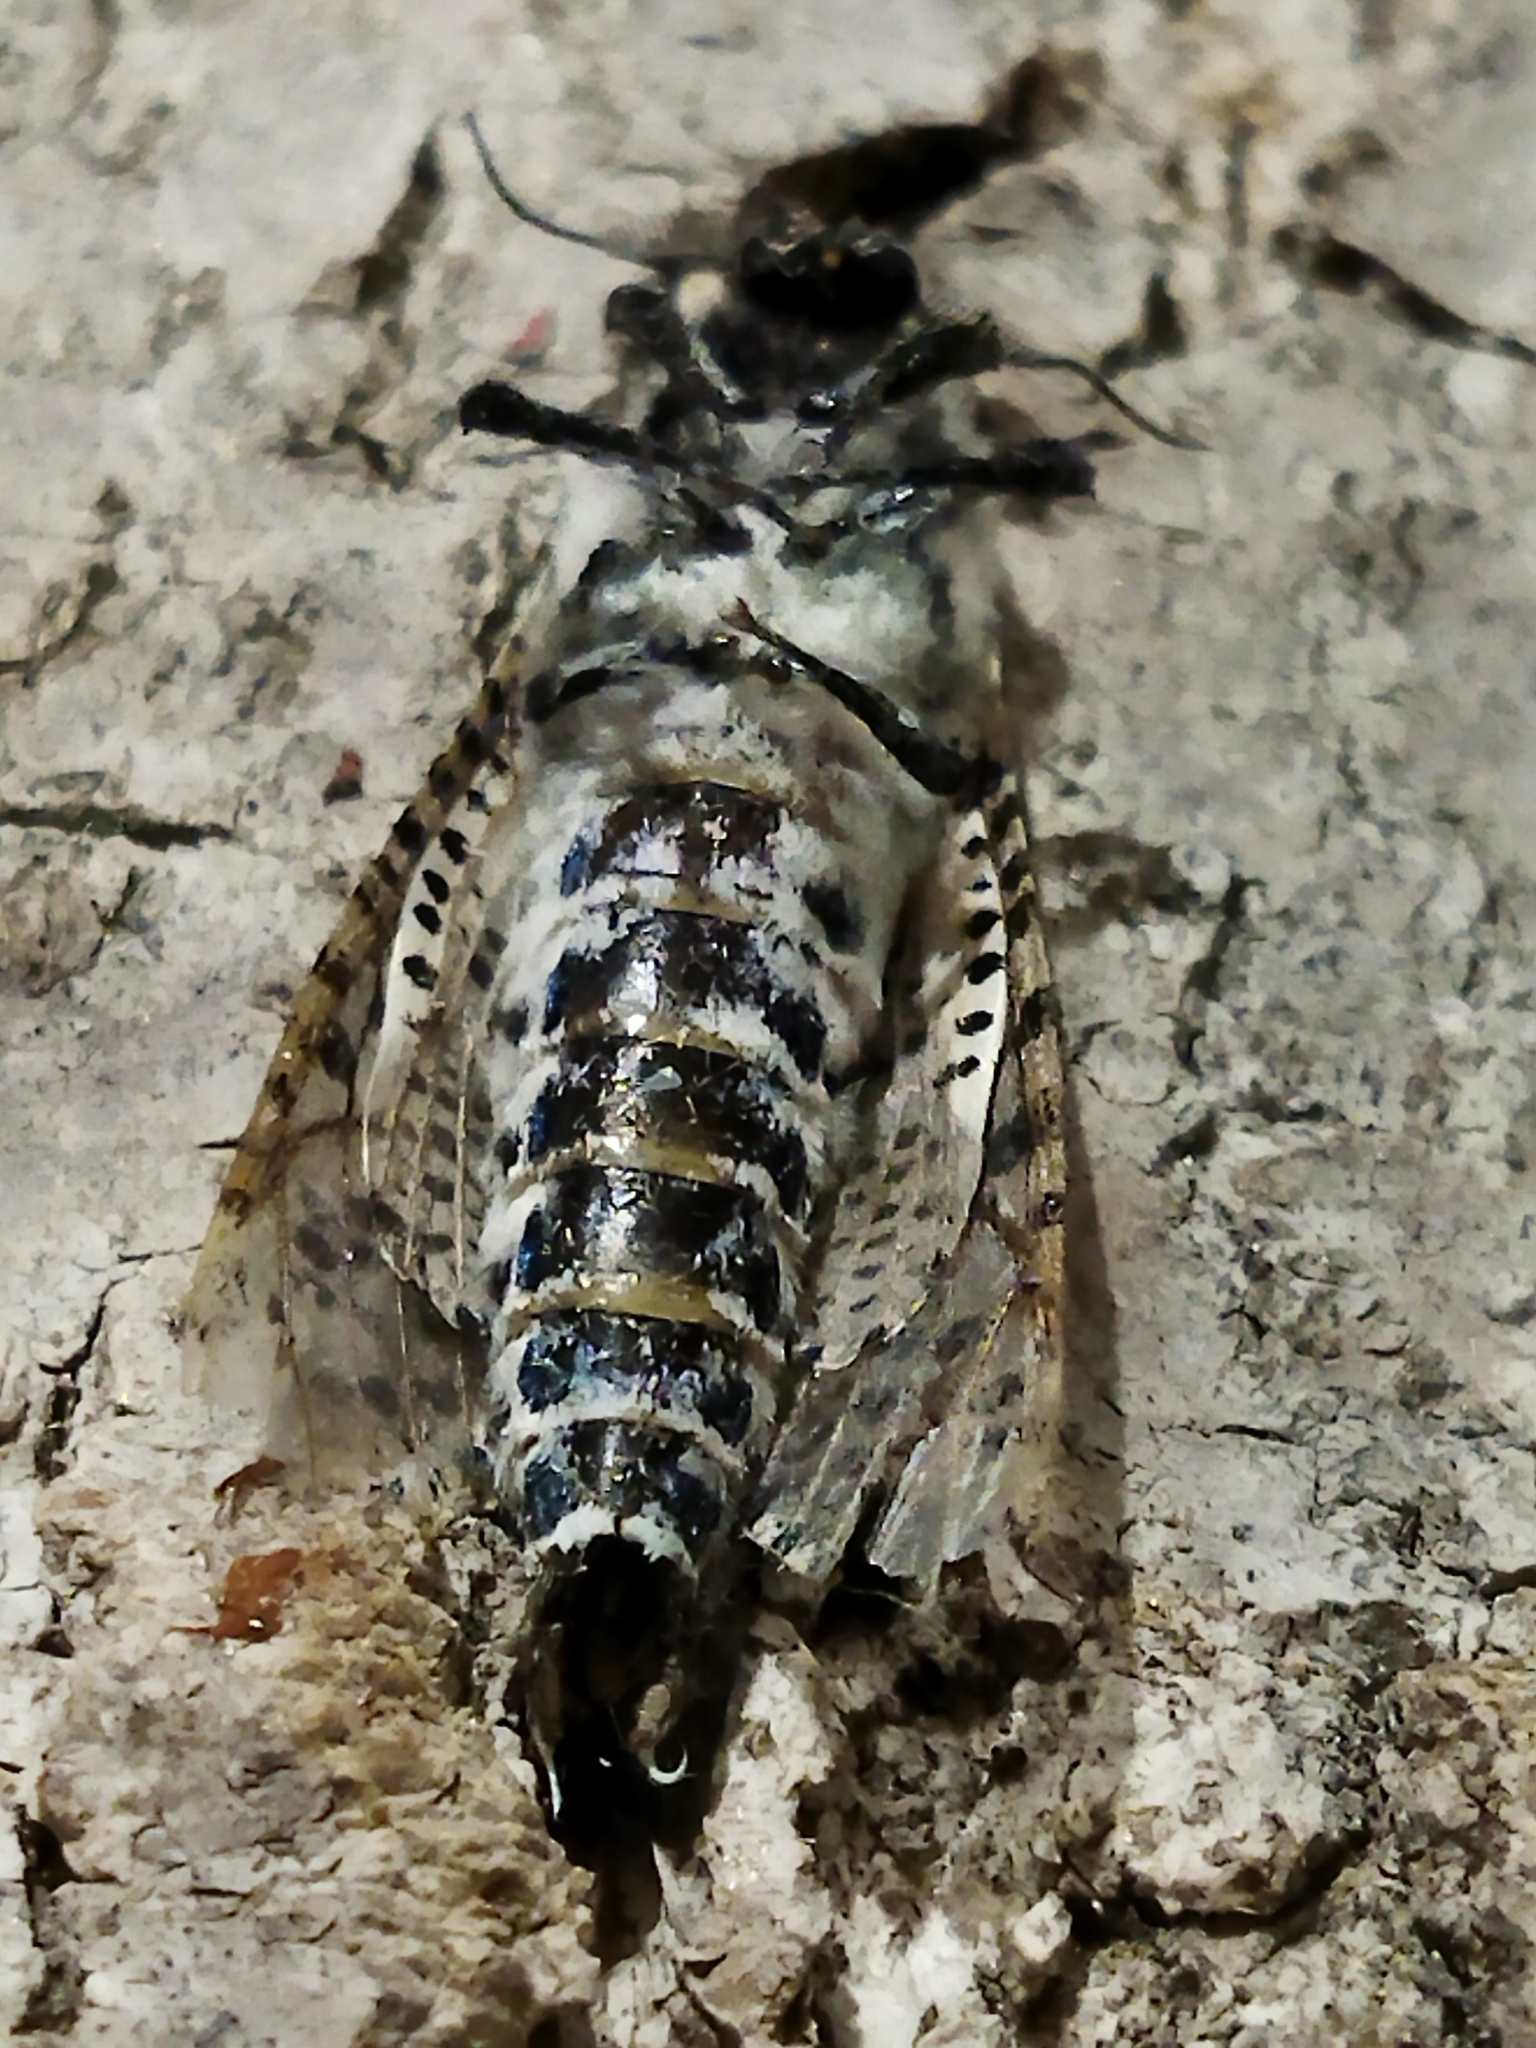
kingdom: Animalia
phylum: Arthropoda
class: Insecta
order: Lepidoptera
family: Cossidae
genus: Zeuzera
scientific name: Zeuzera pyrina
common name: Leopard moth
